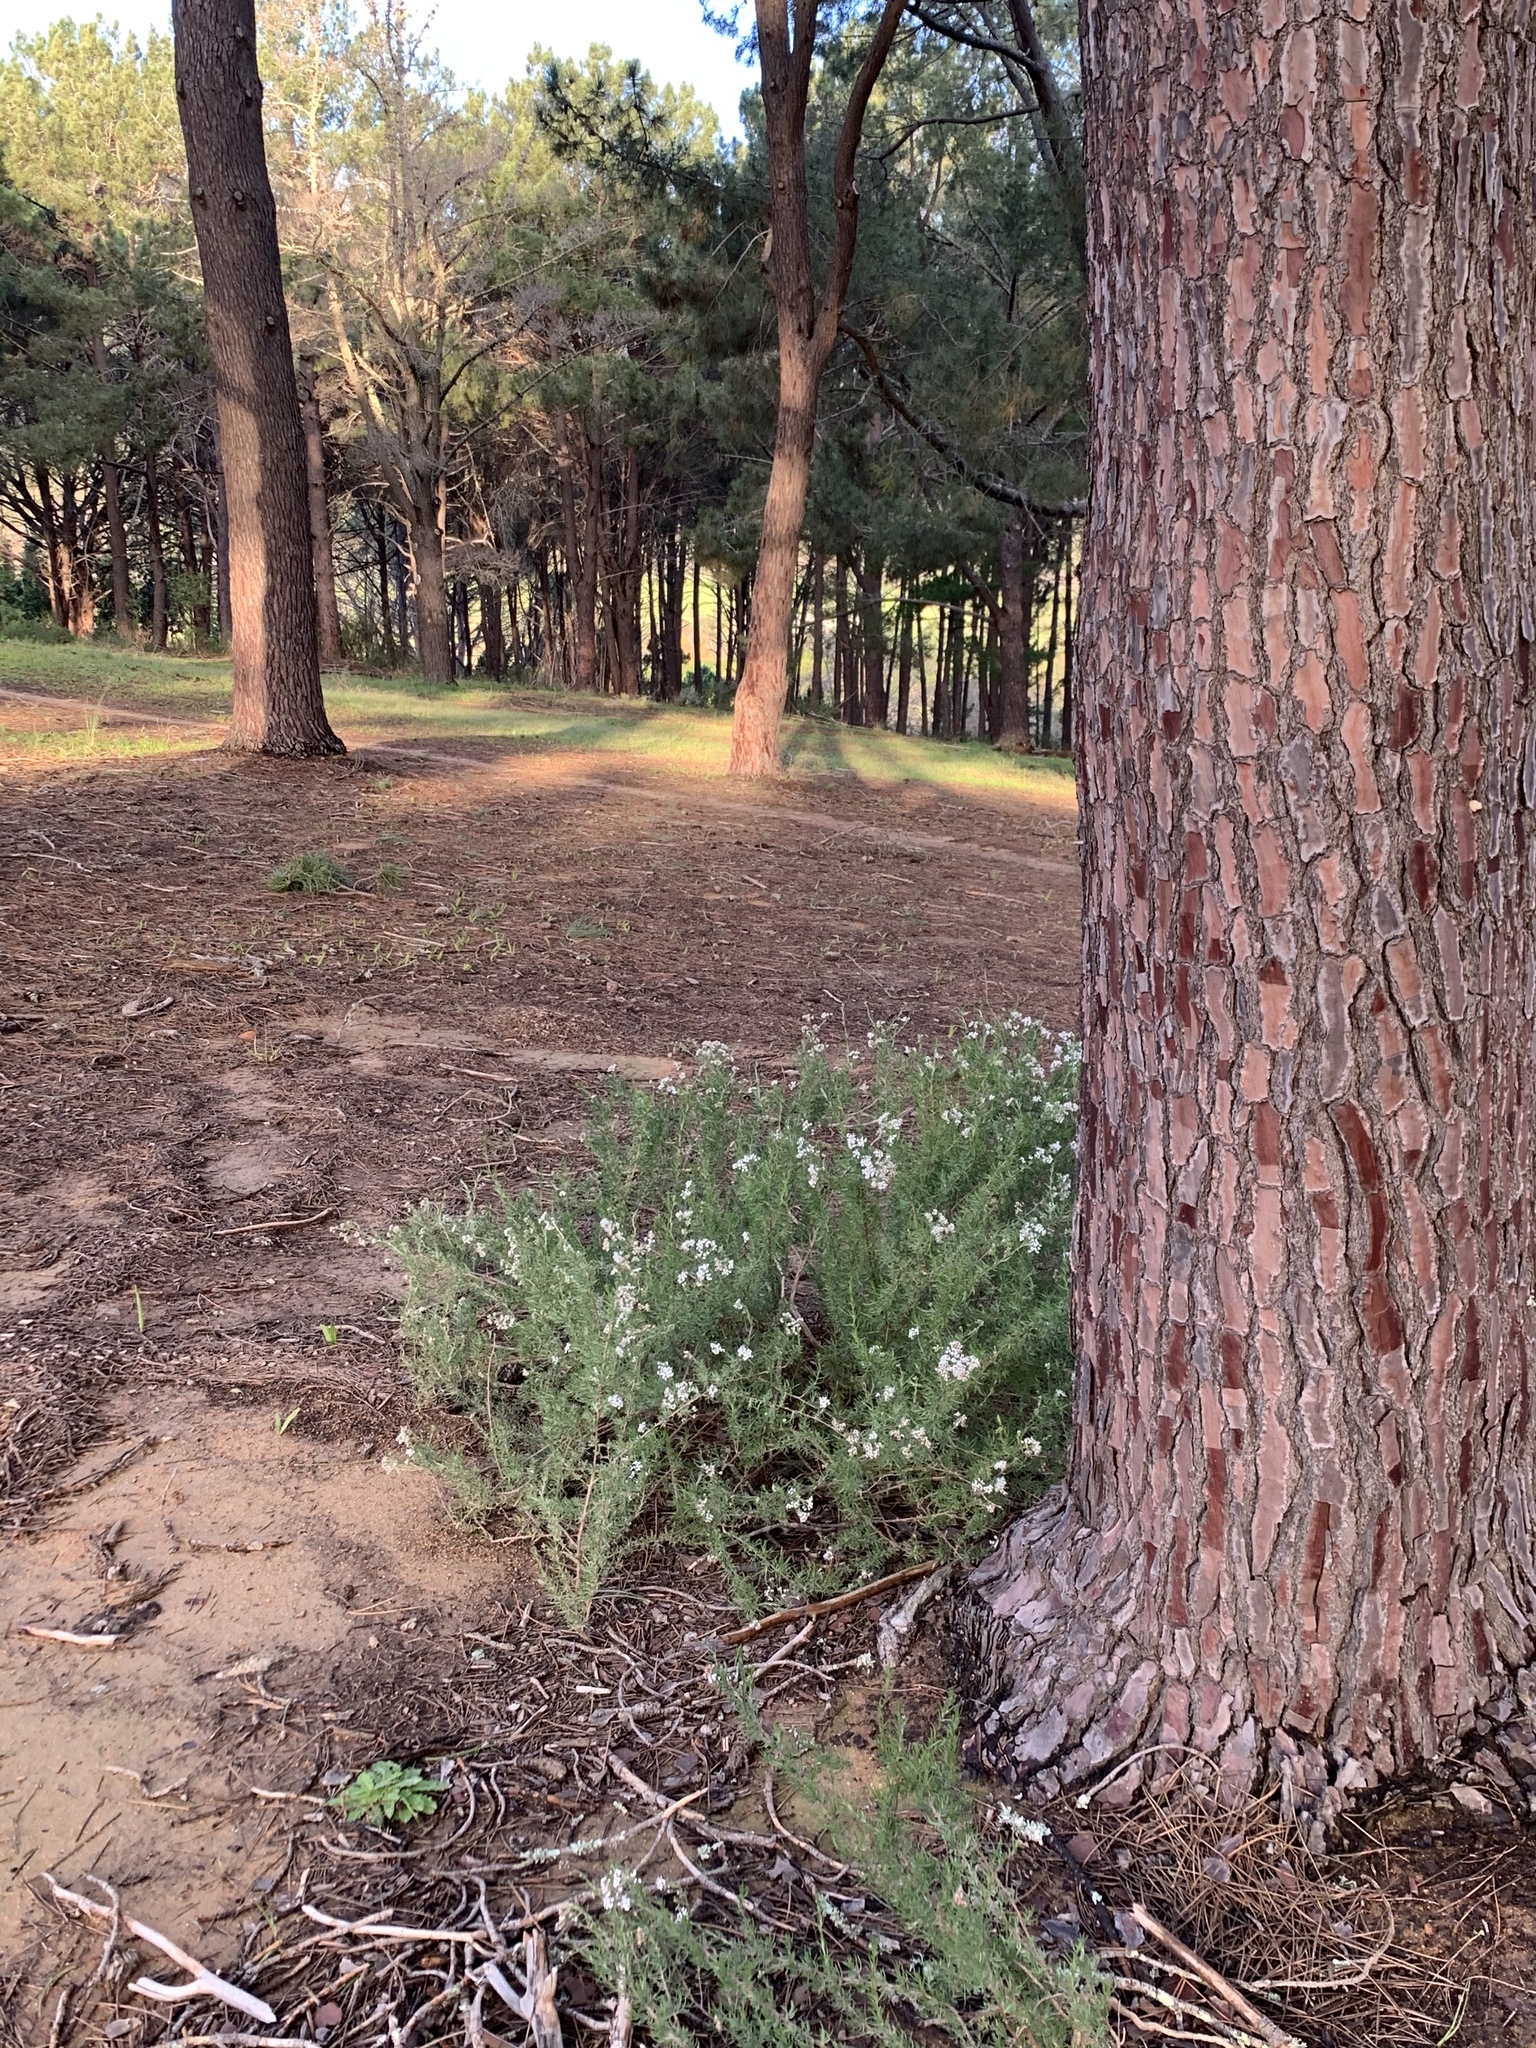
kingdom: Plantae
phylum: Tracheophyta
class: Magnoliopsida
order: Asterales
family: Asteraceae
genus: Eriocephalus
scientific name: Eriocephalus africanus
